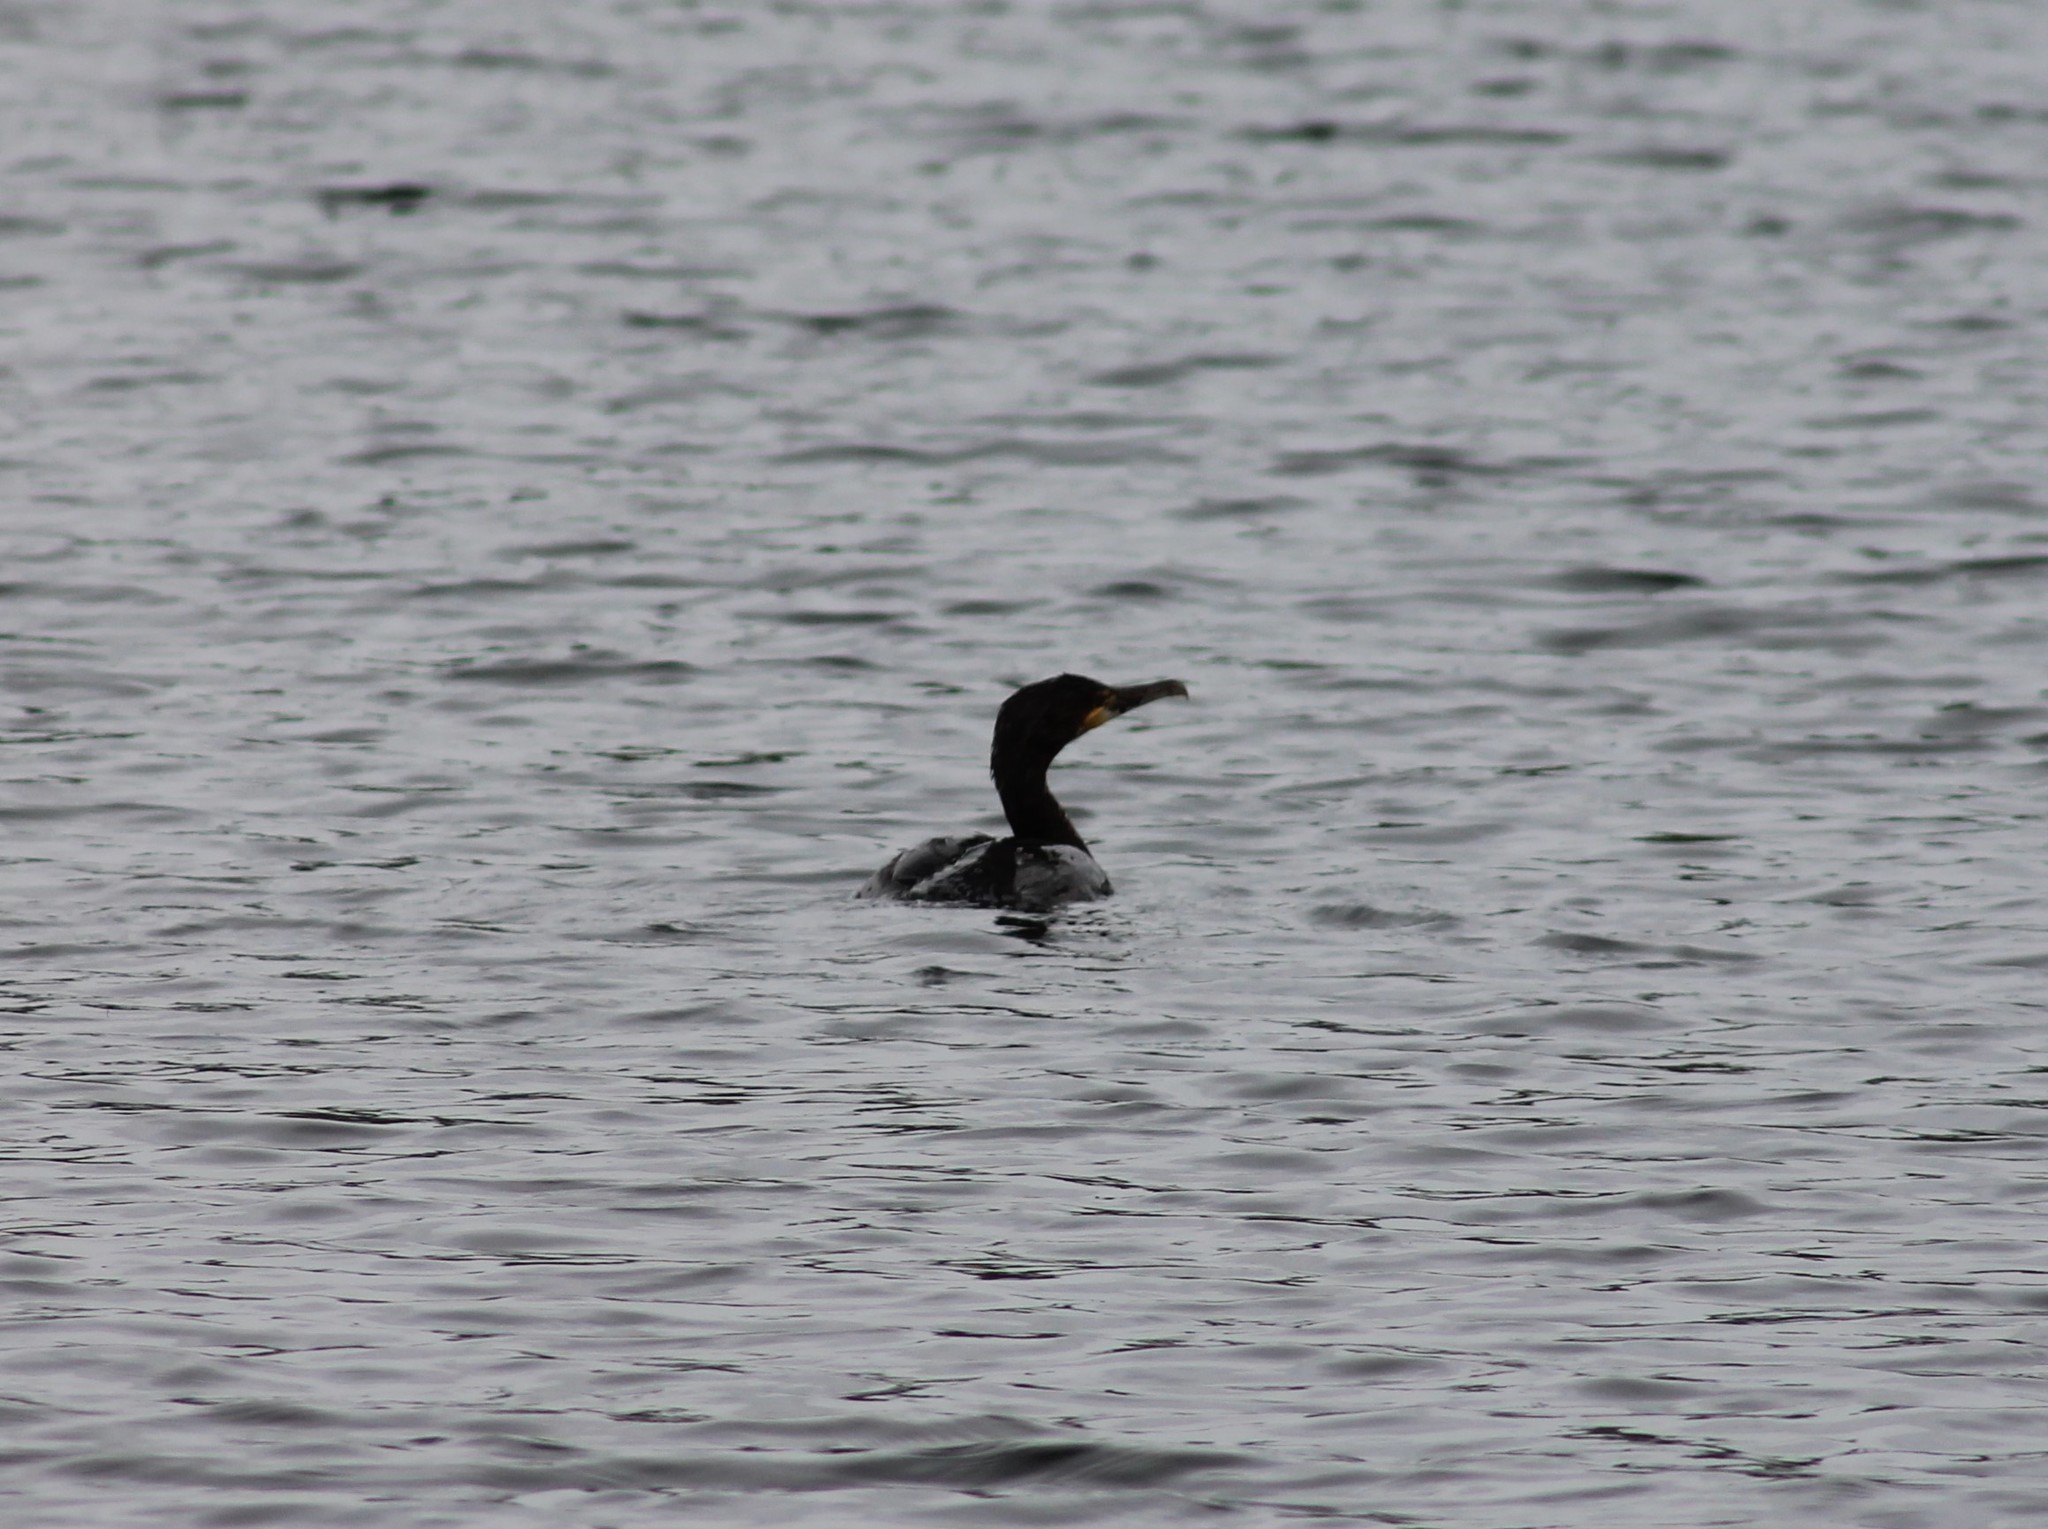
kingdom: Animalia
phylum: Chordata
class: Aves
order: Suliformes
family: Phalacrocoracidae
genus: Phalacrocorax
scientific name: Phalacrocorax carbo
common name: Great cormorant
